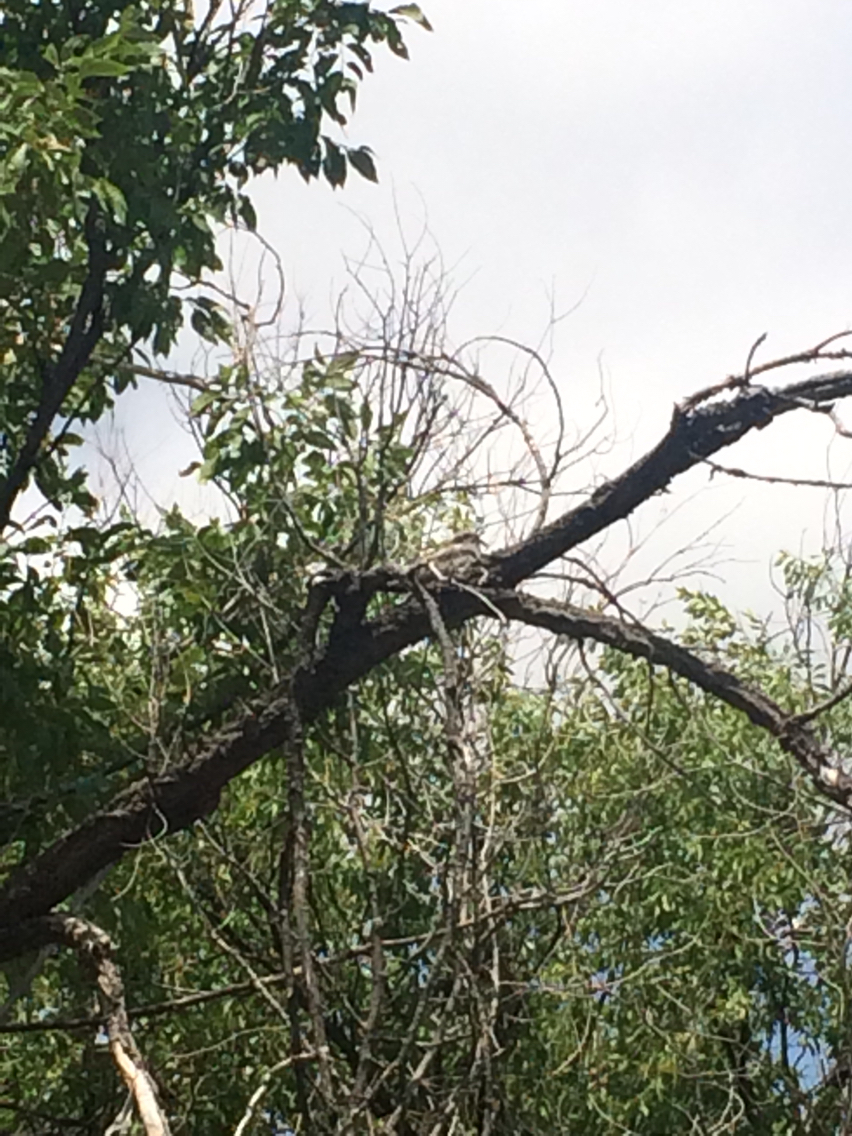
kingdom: Animalia
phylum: Chordata
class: Aves
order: Caprimulgiformes
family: Caprimulgidae
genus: Chordeiles
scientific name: Chordeiles minor
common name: Common nighthawk
